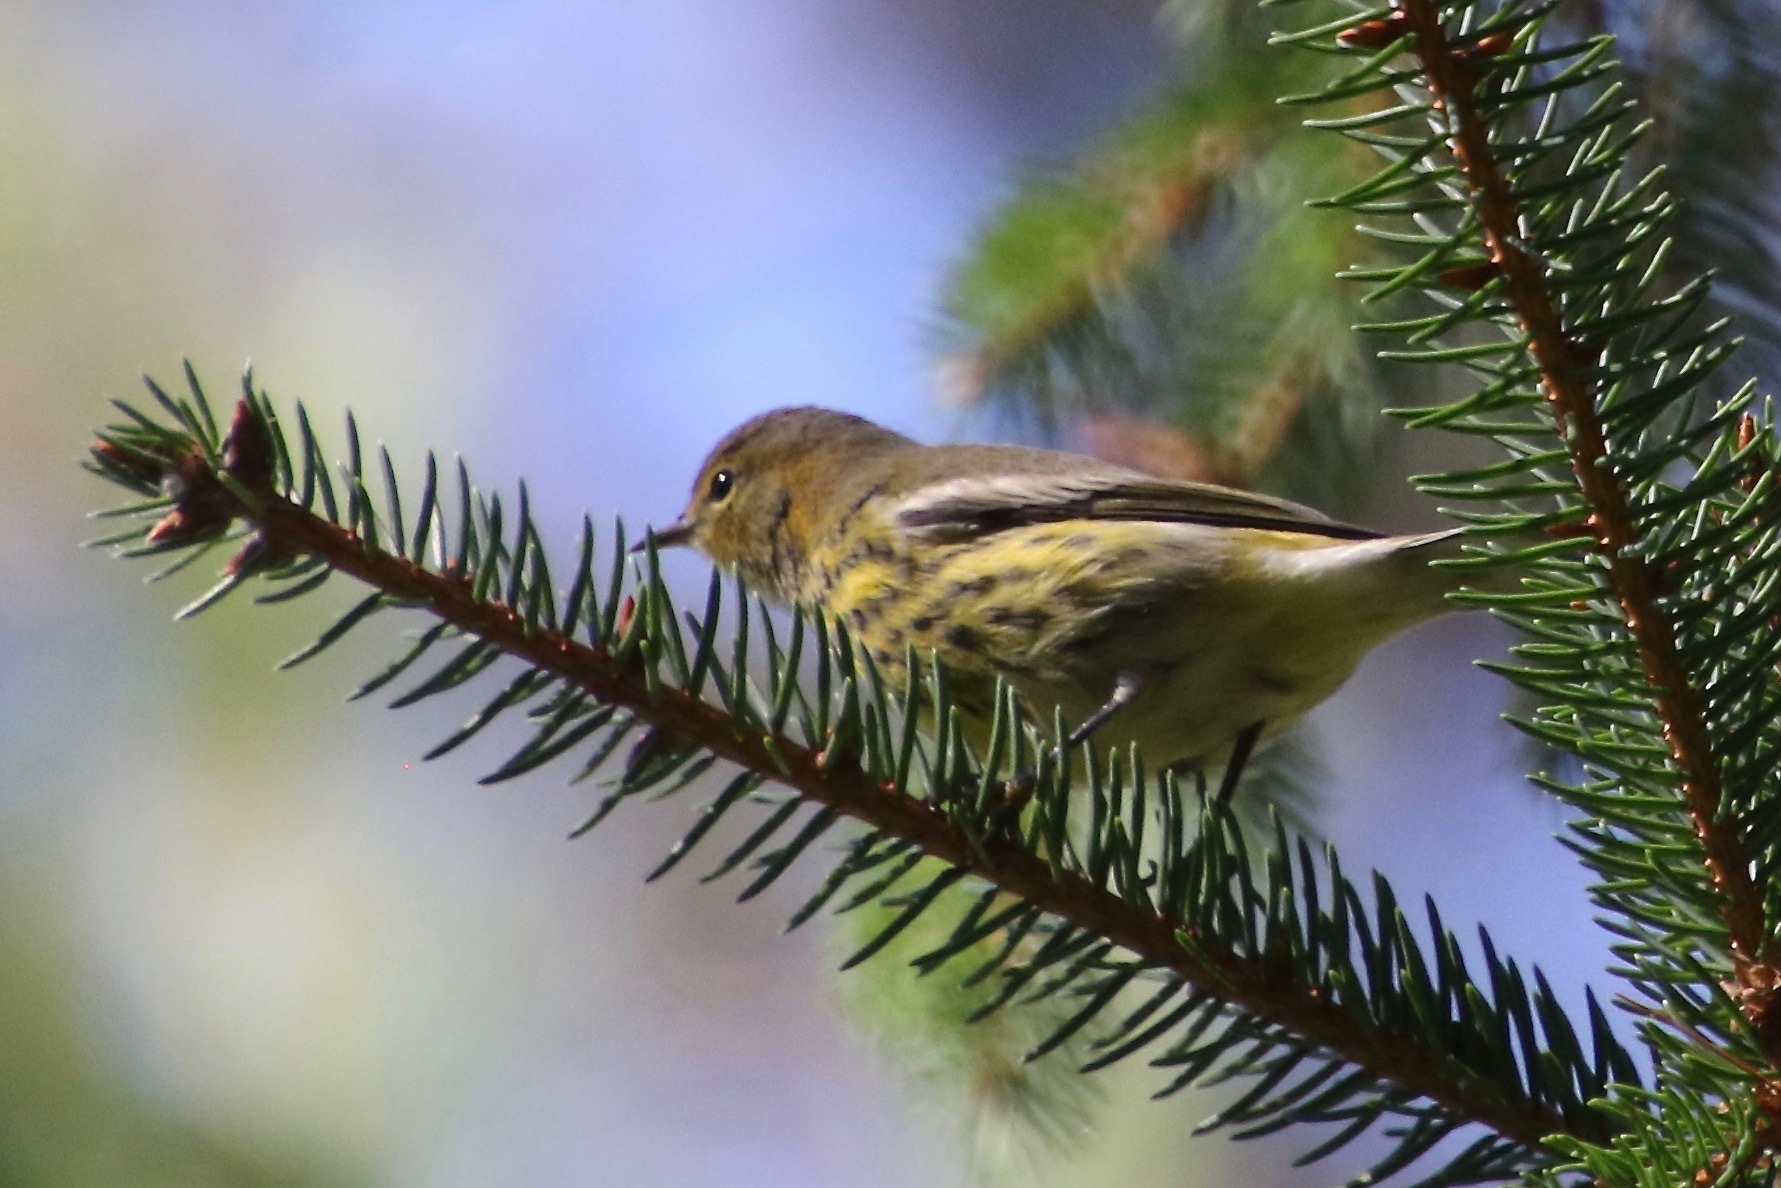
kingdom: Animalia
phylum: Chordata
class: Aves
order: Passeriformes
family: Parulidae
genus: Setophaga
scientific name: Setophaga tigrina
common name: Cape may warbler
